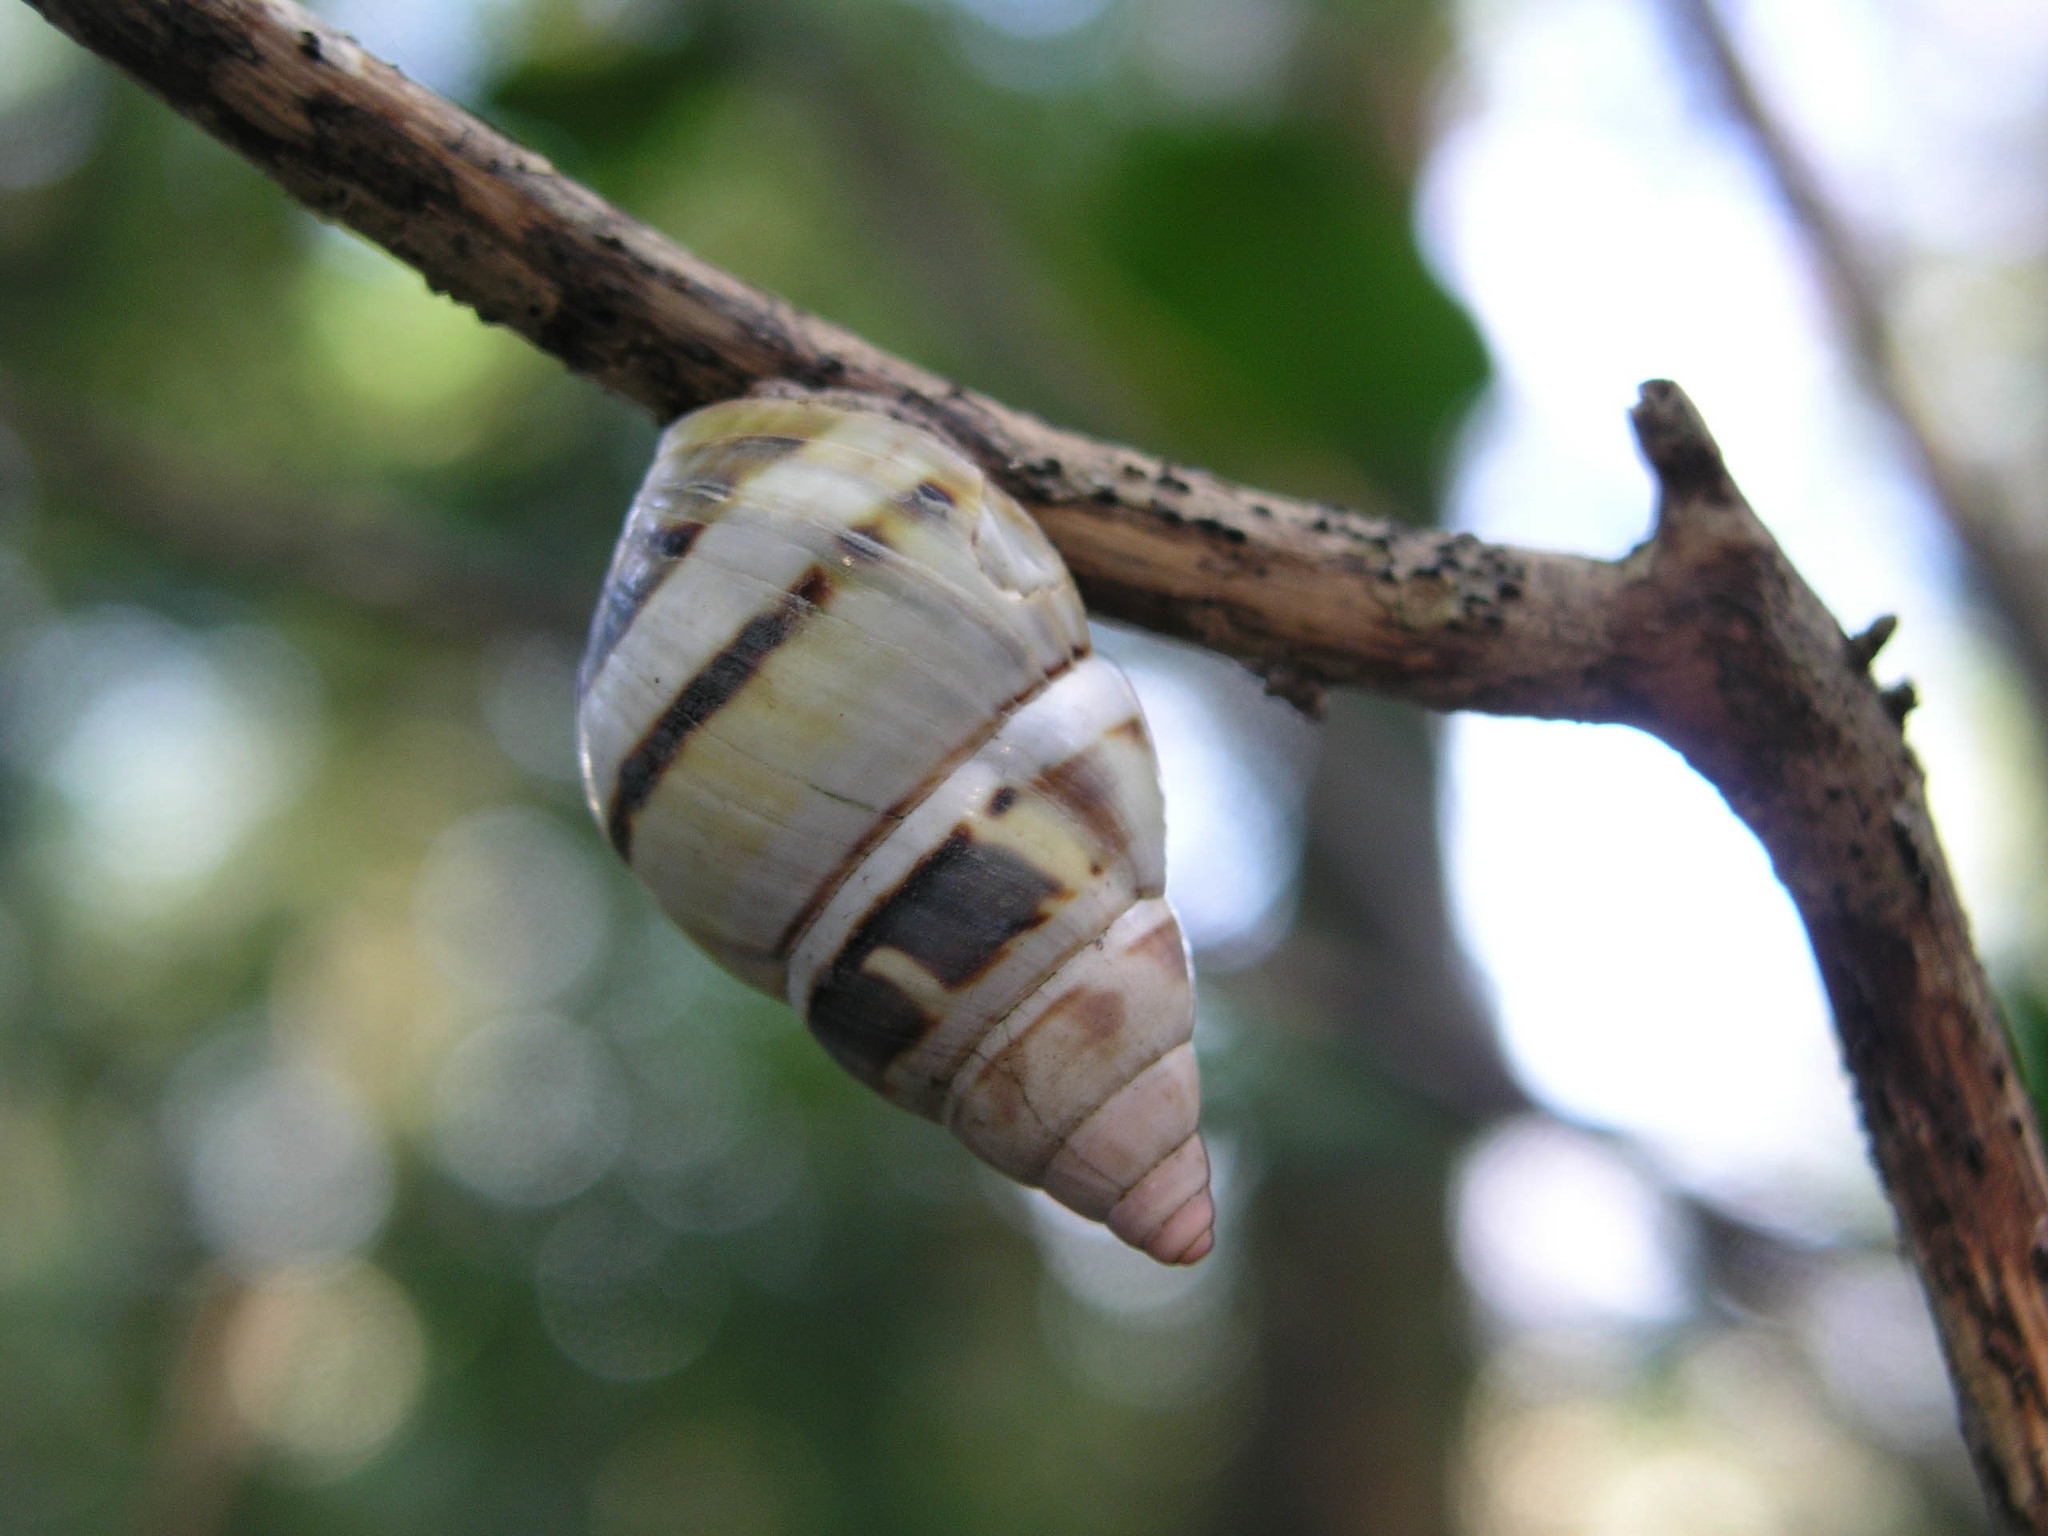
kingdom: Animalia
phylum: Mollusca
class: Gastropoda
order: Stylommatophora
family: Orthalicidae
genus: Liguus
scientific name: Liguus fasciatus
